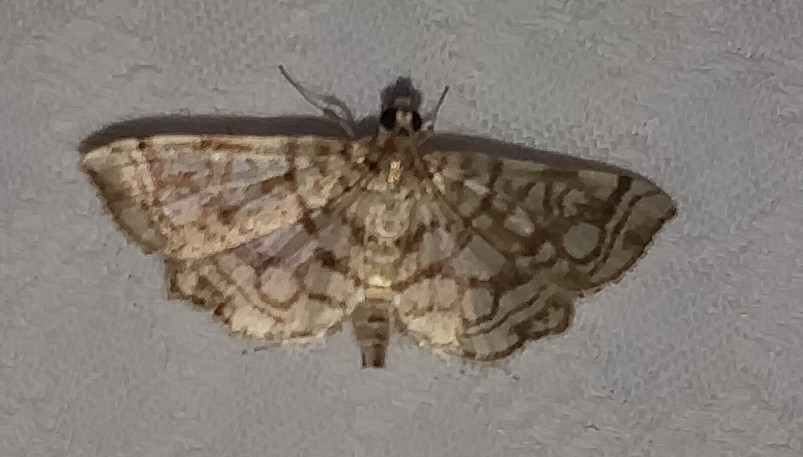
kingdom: Animalia
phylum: Arthropoda
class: Insecta
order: Lepidoptera
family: Crambidae
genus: Lygropia
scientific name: Lygropia rivulalis
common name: Bog lygropia moth
